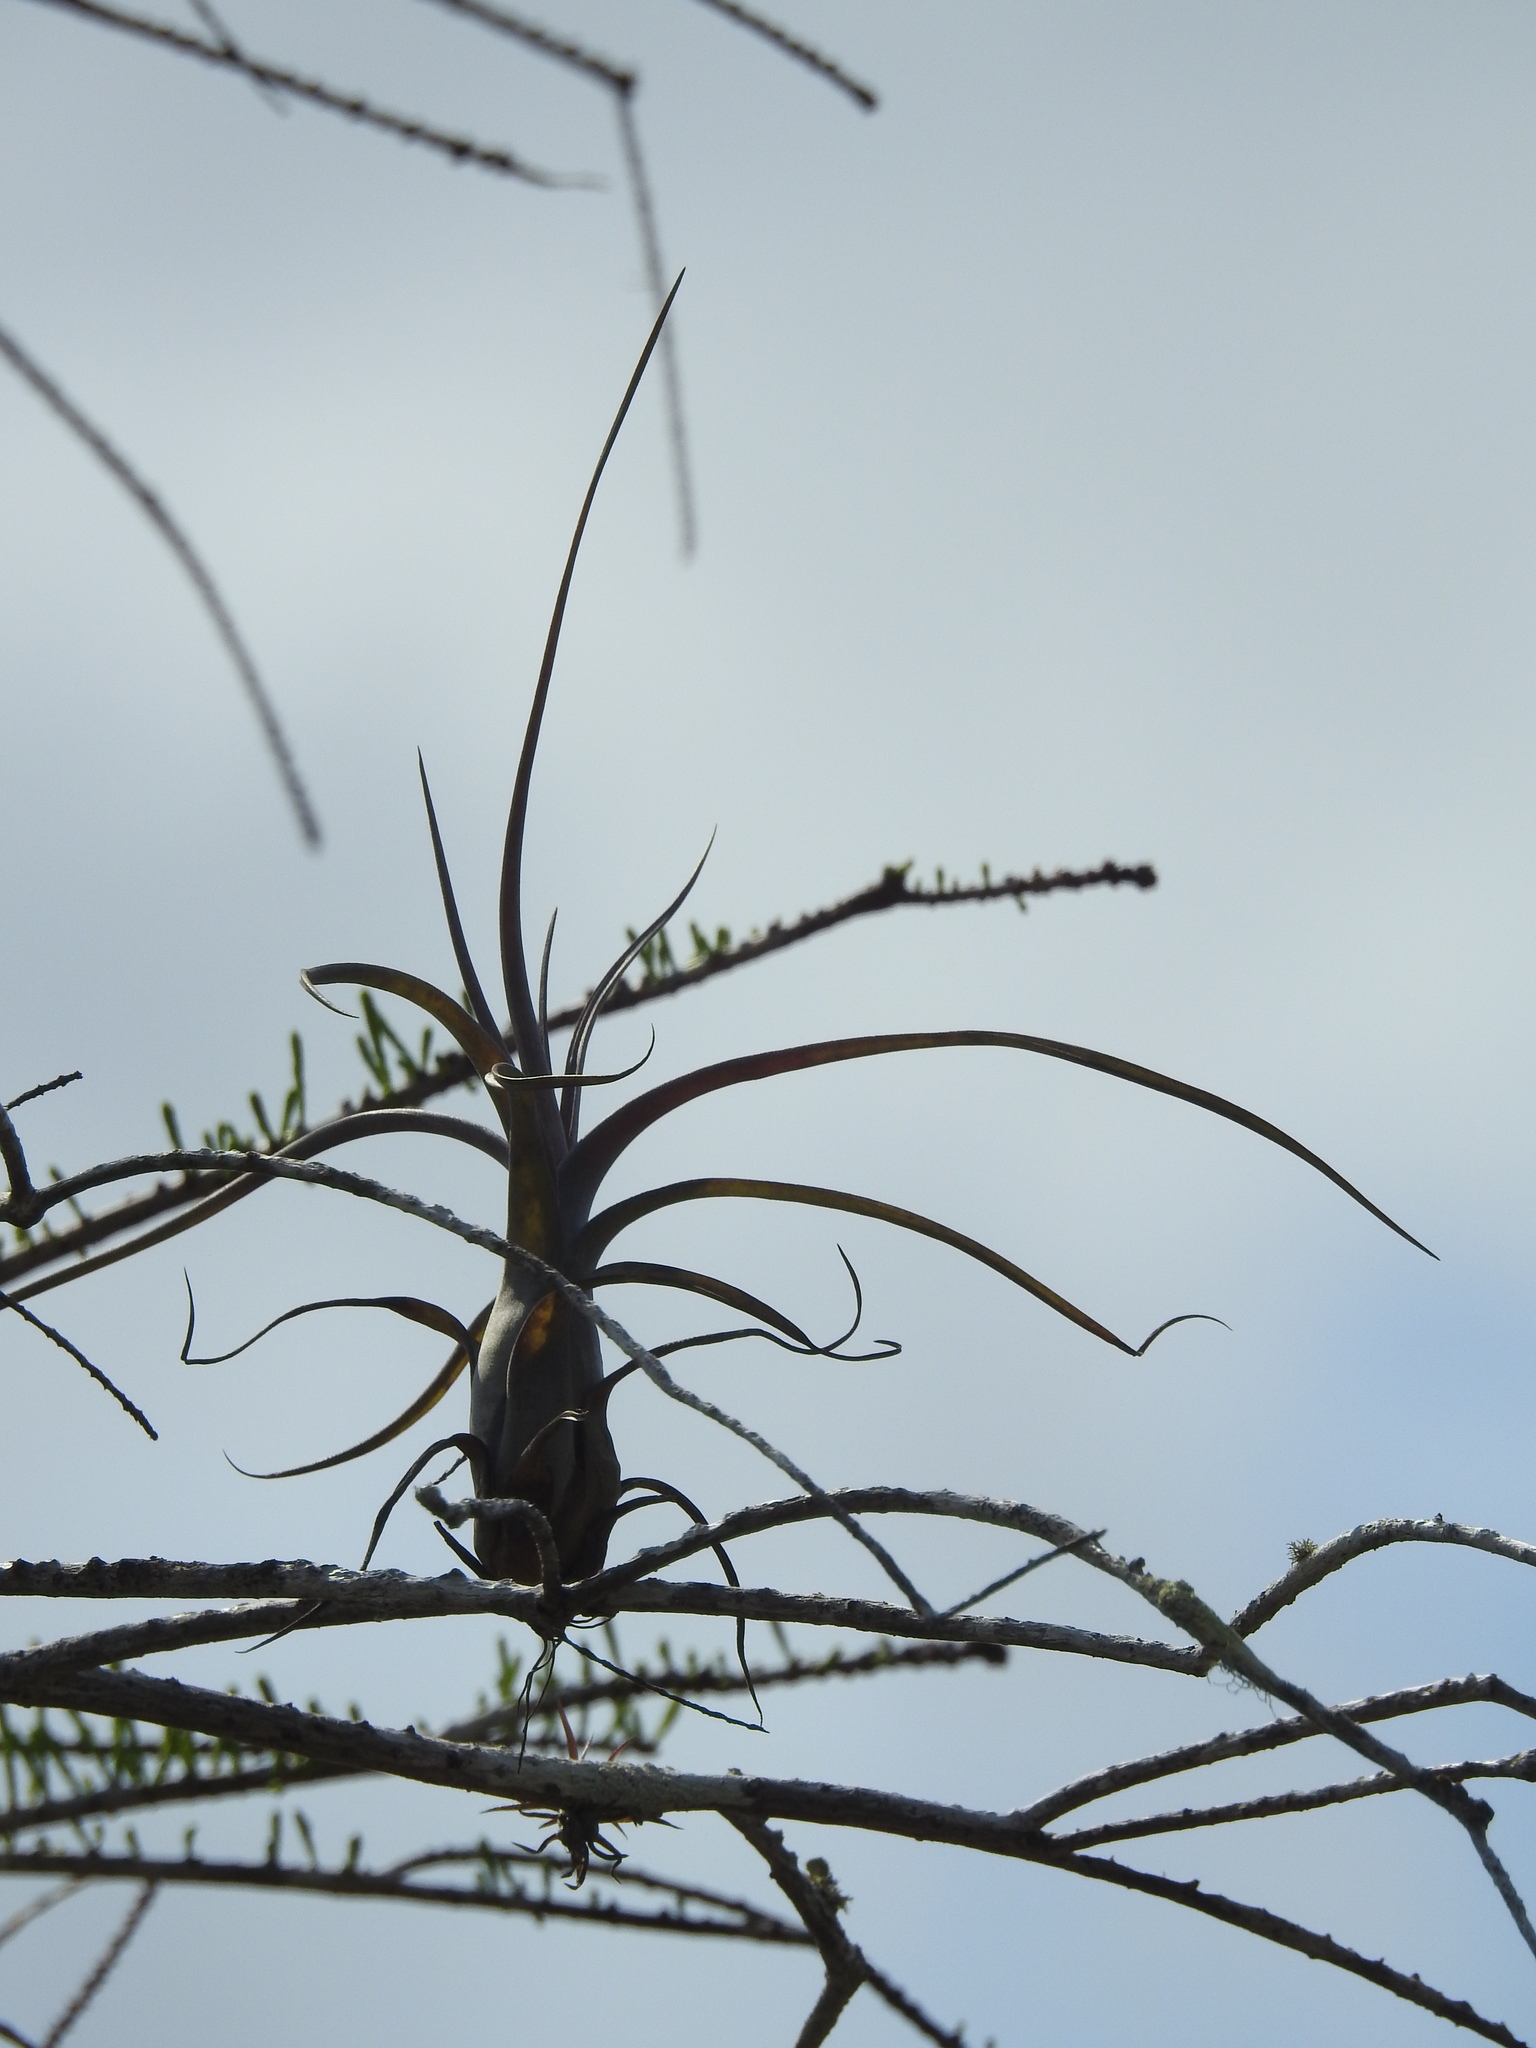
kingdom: Plantae
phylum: Tracheophyta
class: Liliopsida
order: Poales
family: Bromeliaceae
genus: Tillandsia
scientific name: Tillandsia balbisiana
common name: Northern needleleaf
